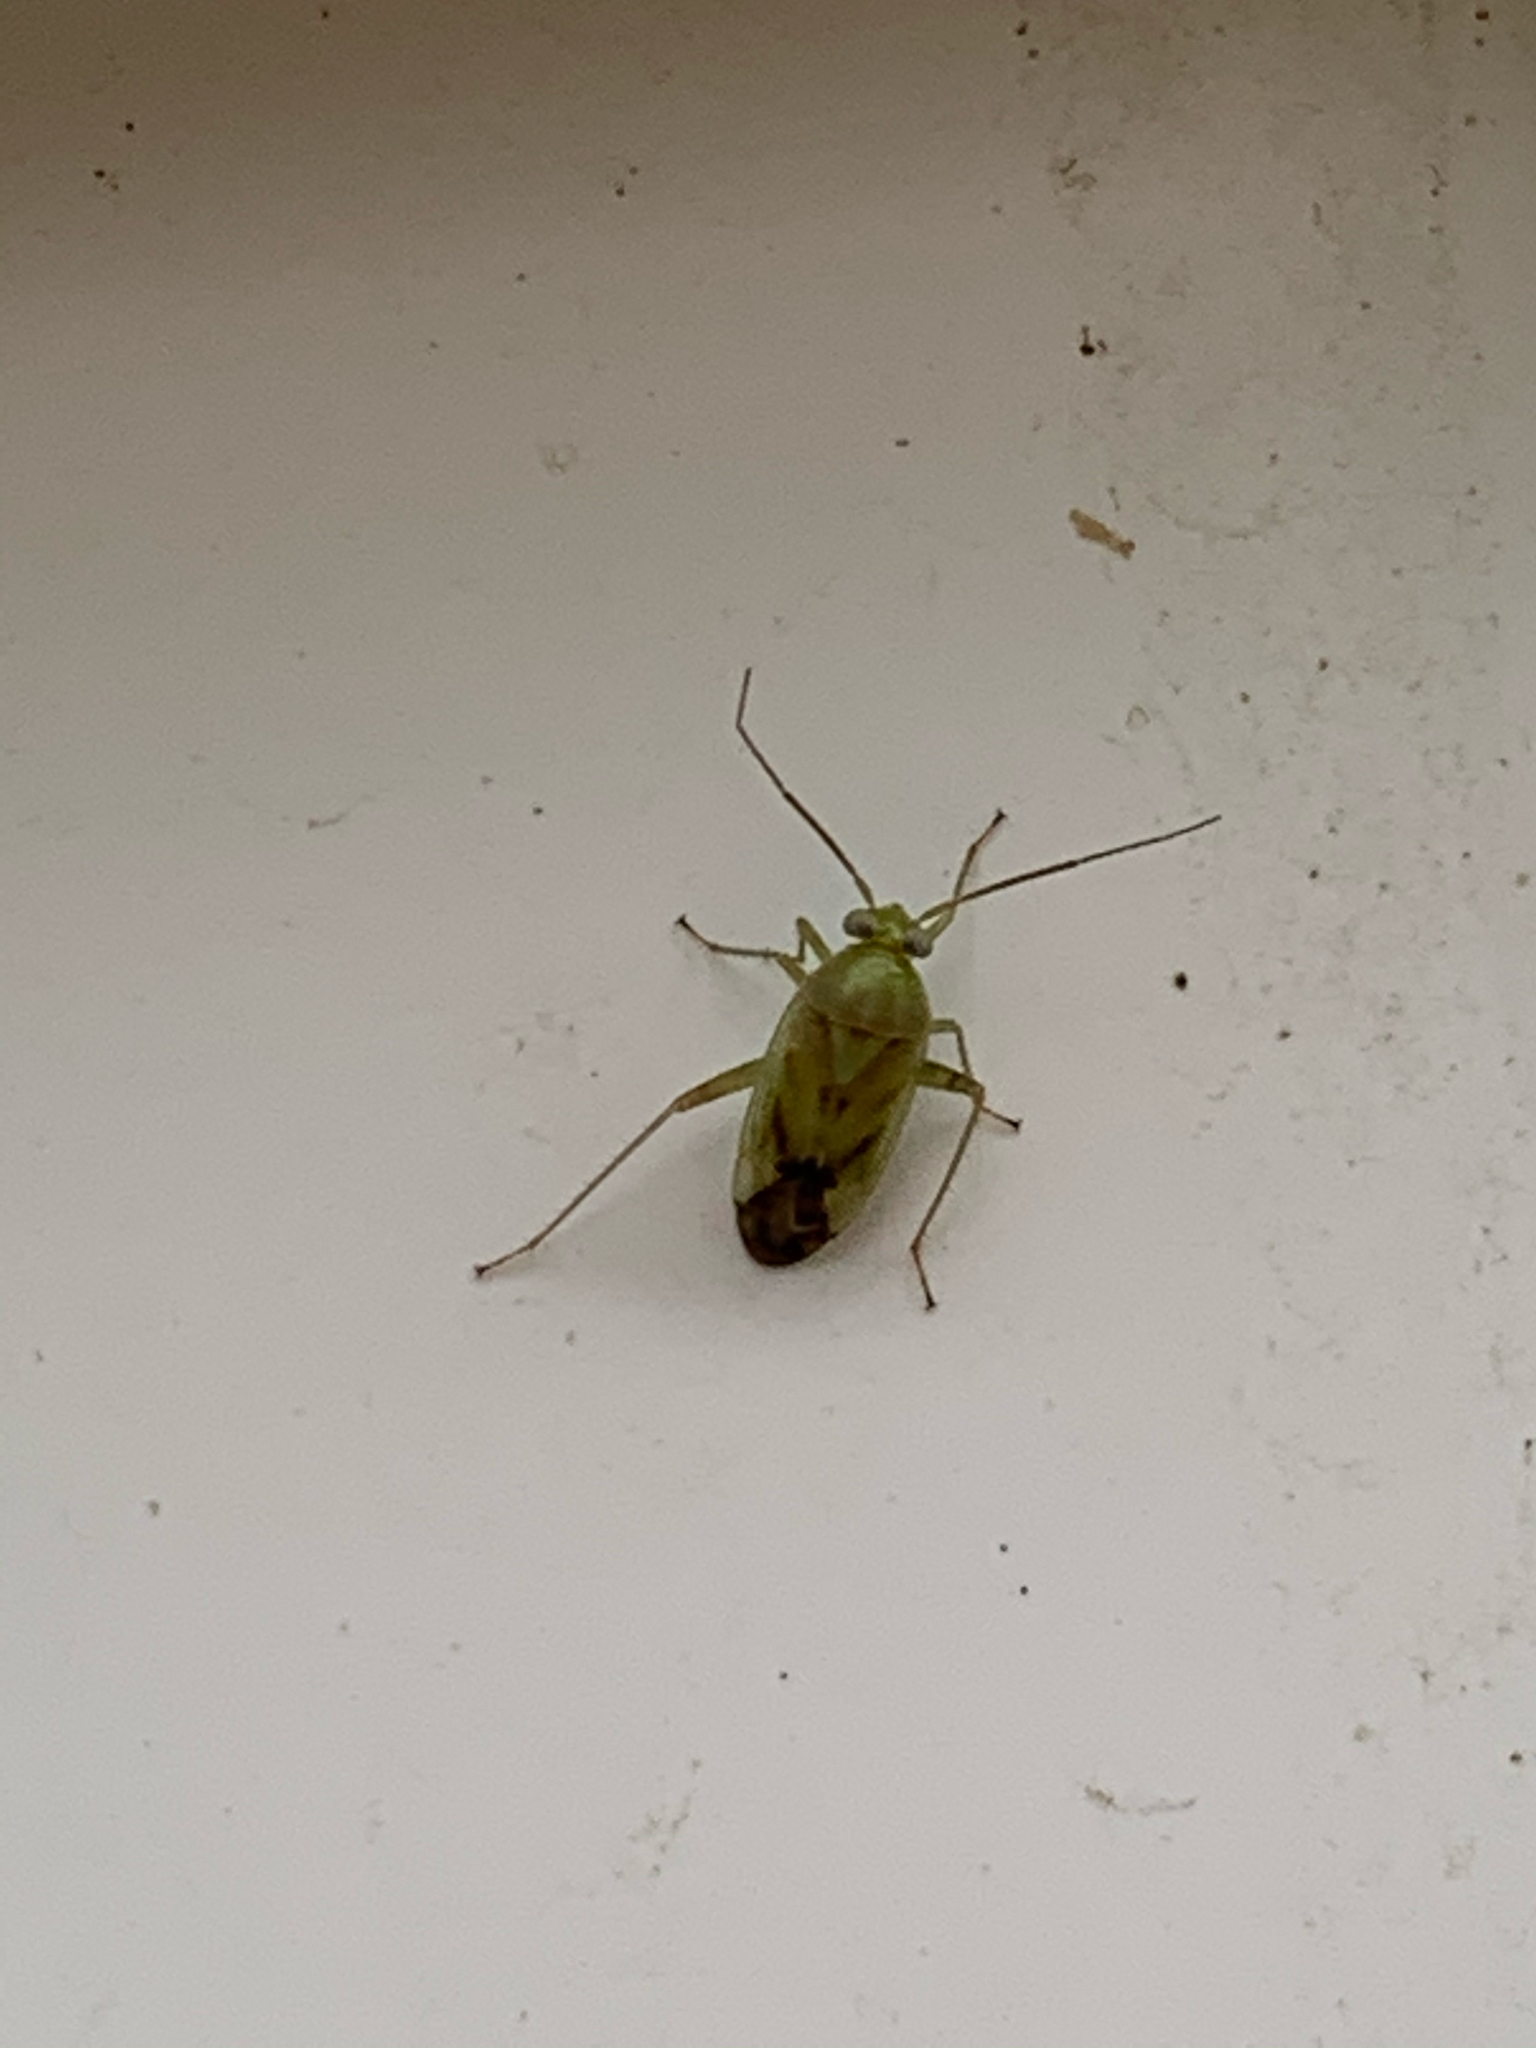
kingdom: Animalia
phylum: Arthropoda
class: Insecta
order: Hemiptera
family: Miridae
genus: Taylorilygus
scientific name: Taylorilygus apicalis
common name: Plant bug
